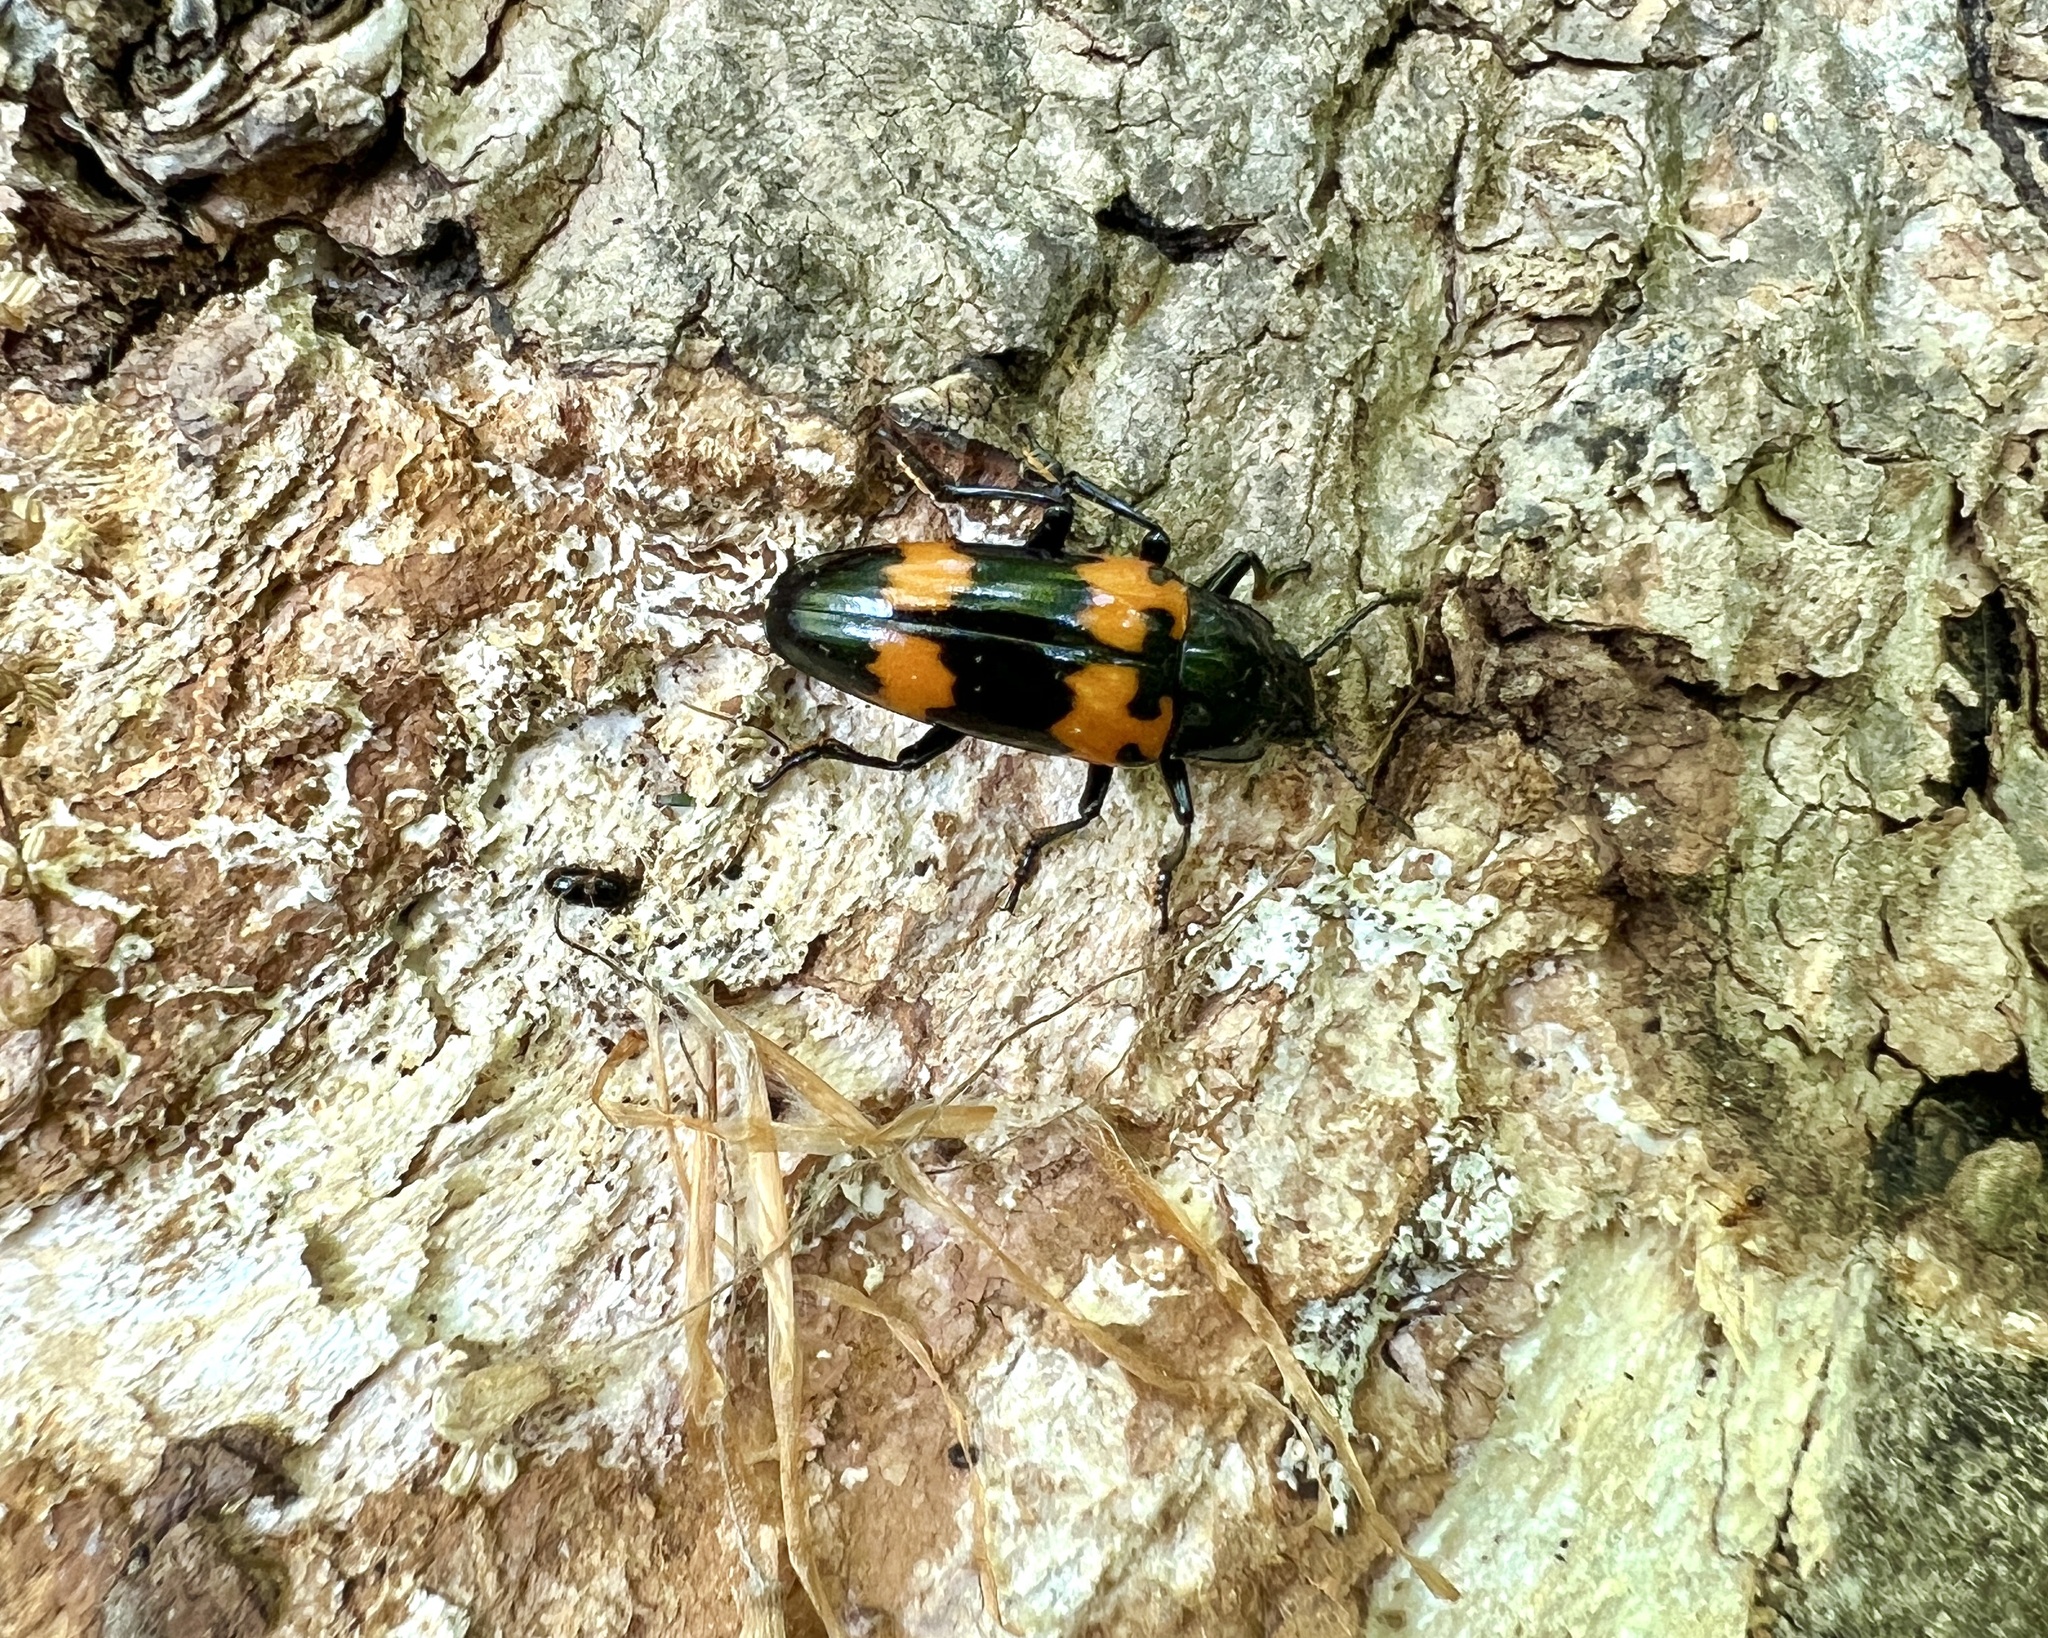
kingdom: Animalia
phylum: Arthropoda
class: Insecta
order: Coleoptera
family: Erotylidae
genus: Megalodacne
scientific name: Megalodacne heros
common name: Pleasing fungus beetle
